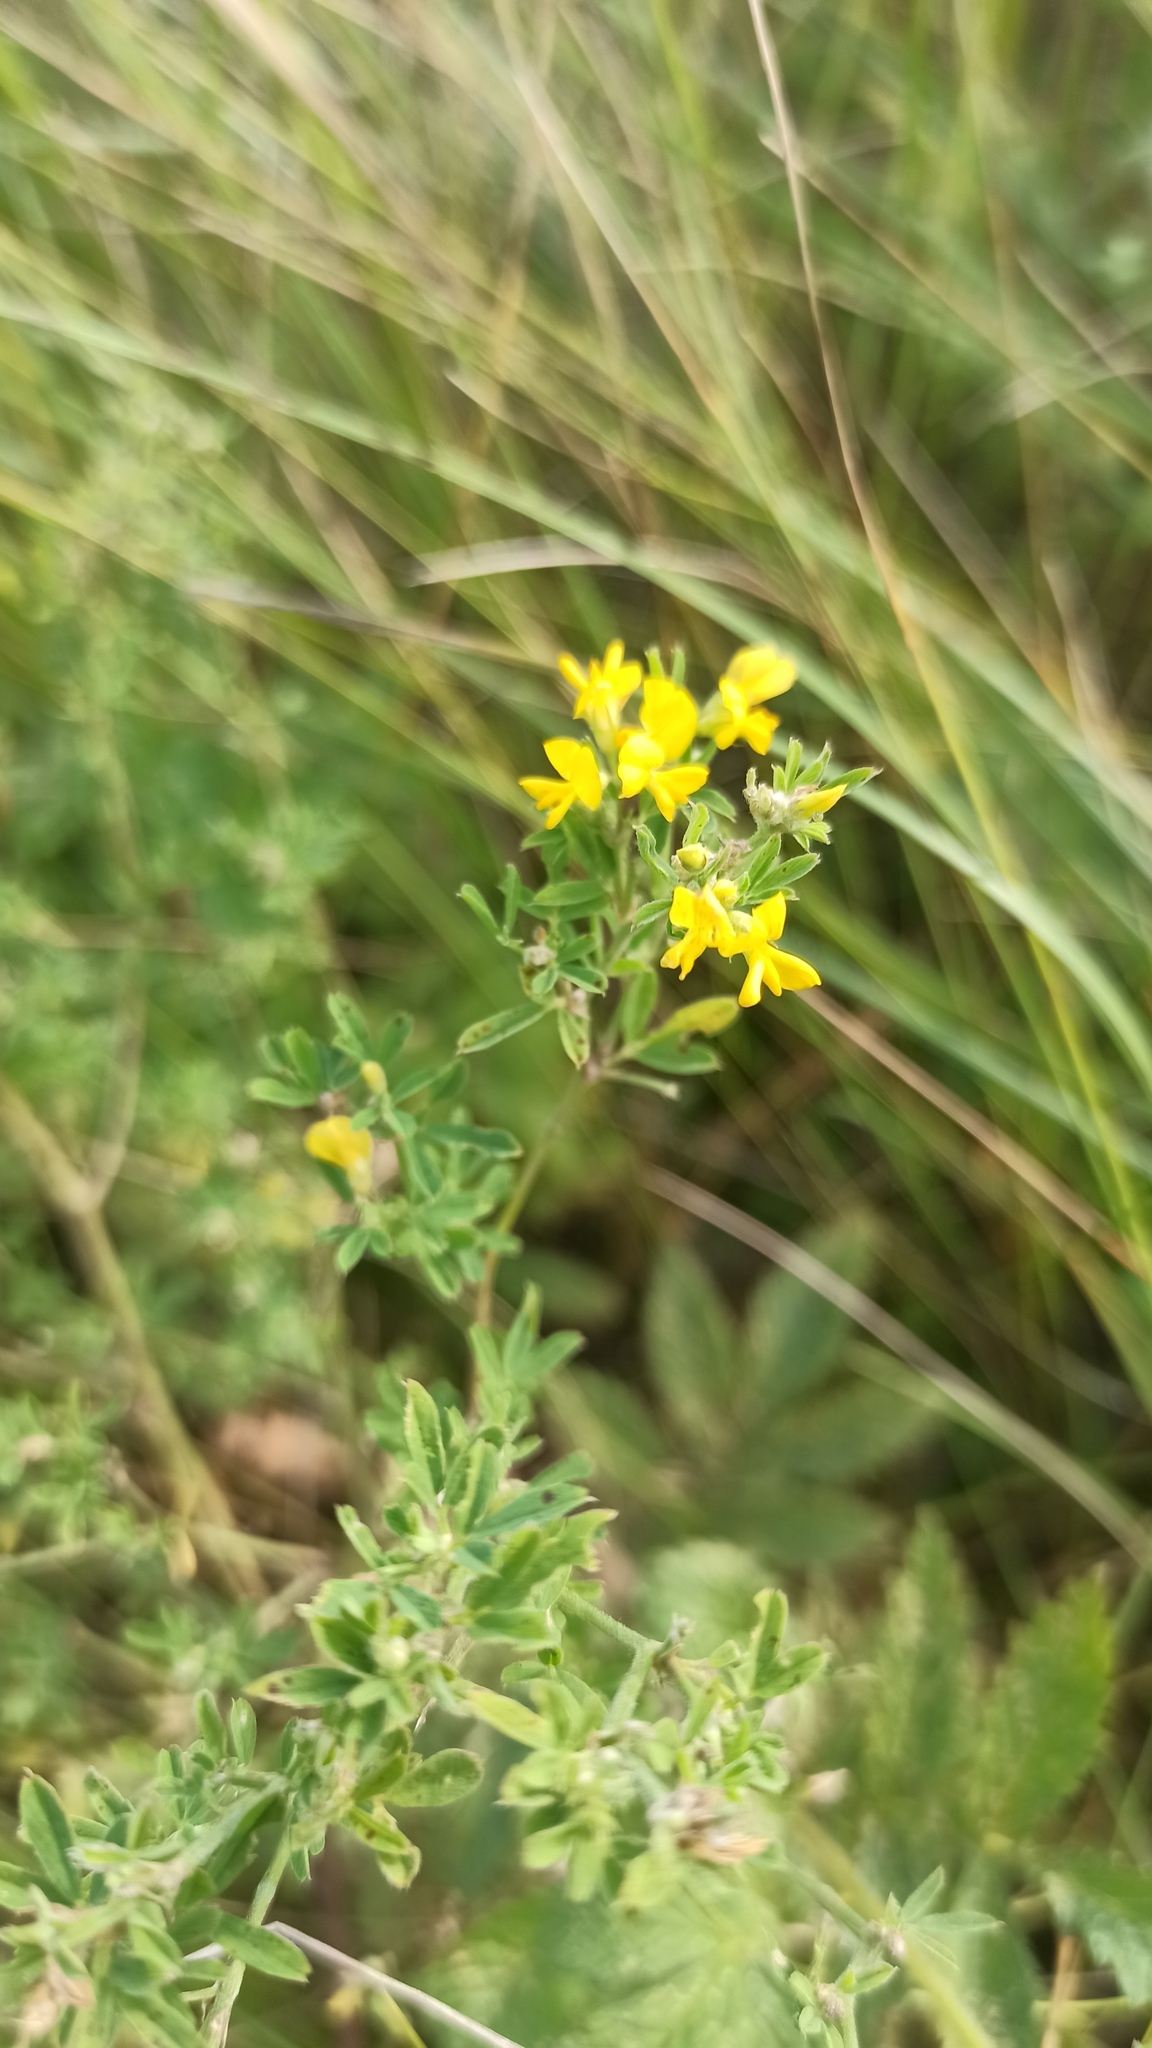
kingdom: Plantae
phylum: Tracheophyta
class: Magnoliopsida
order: Fabales
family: Fabaceae
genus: Medicago
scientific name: Medicago falcata
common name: Sickle medick
